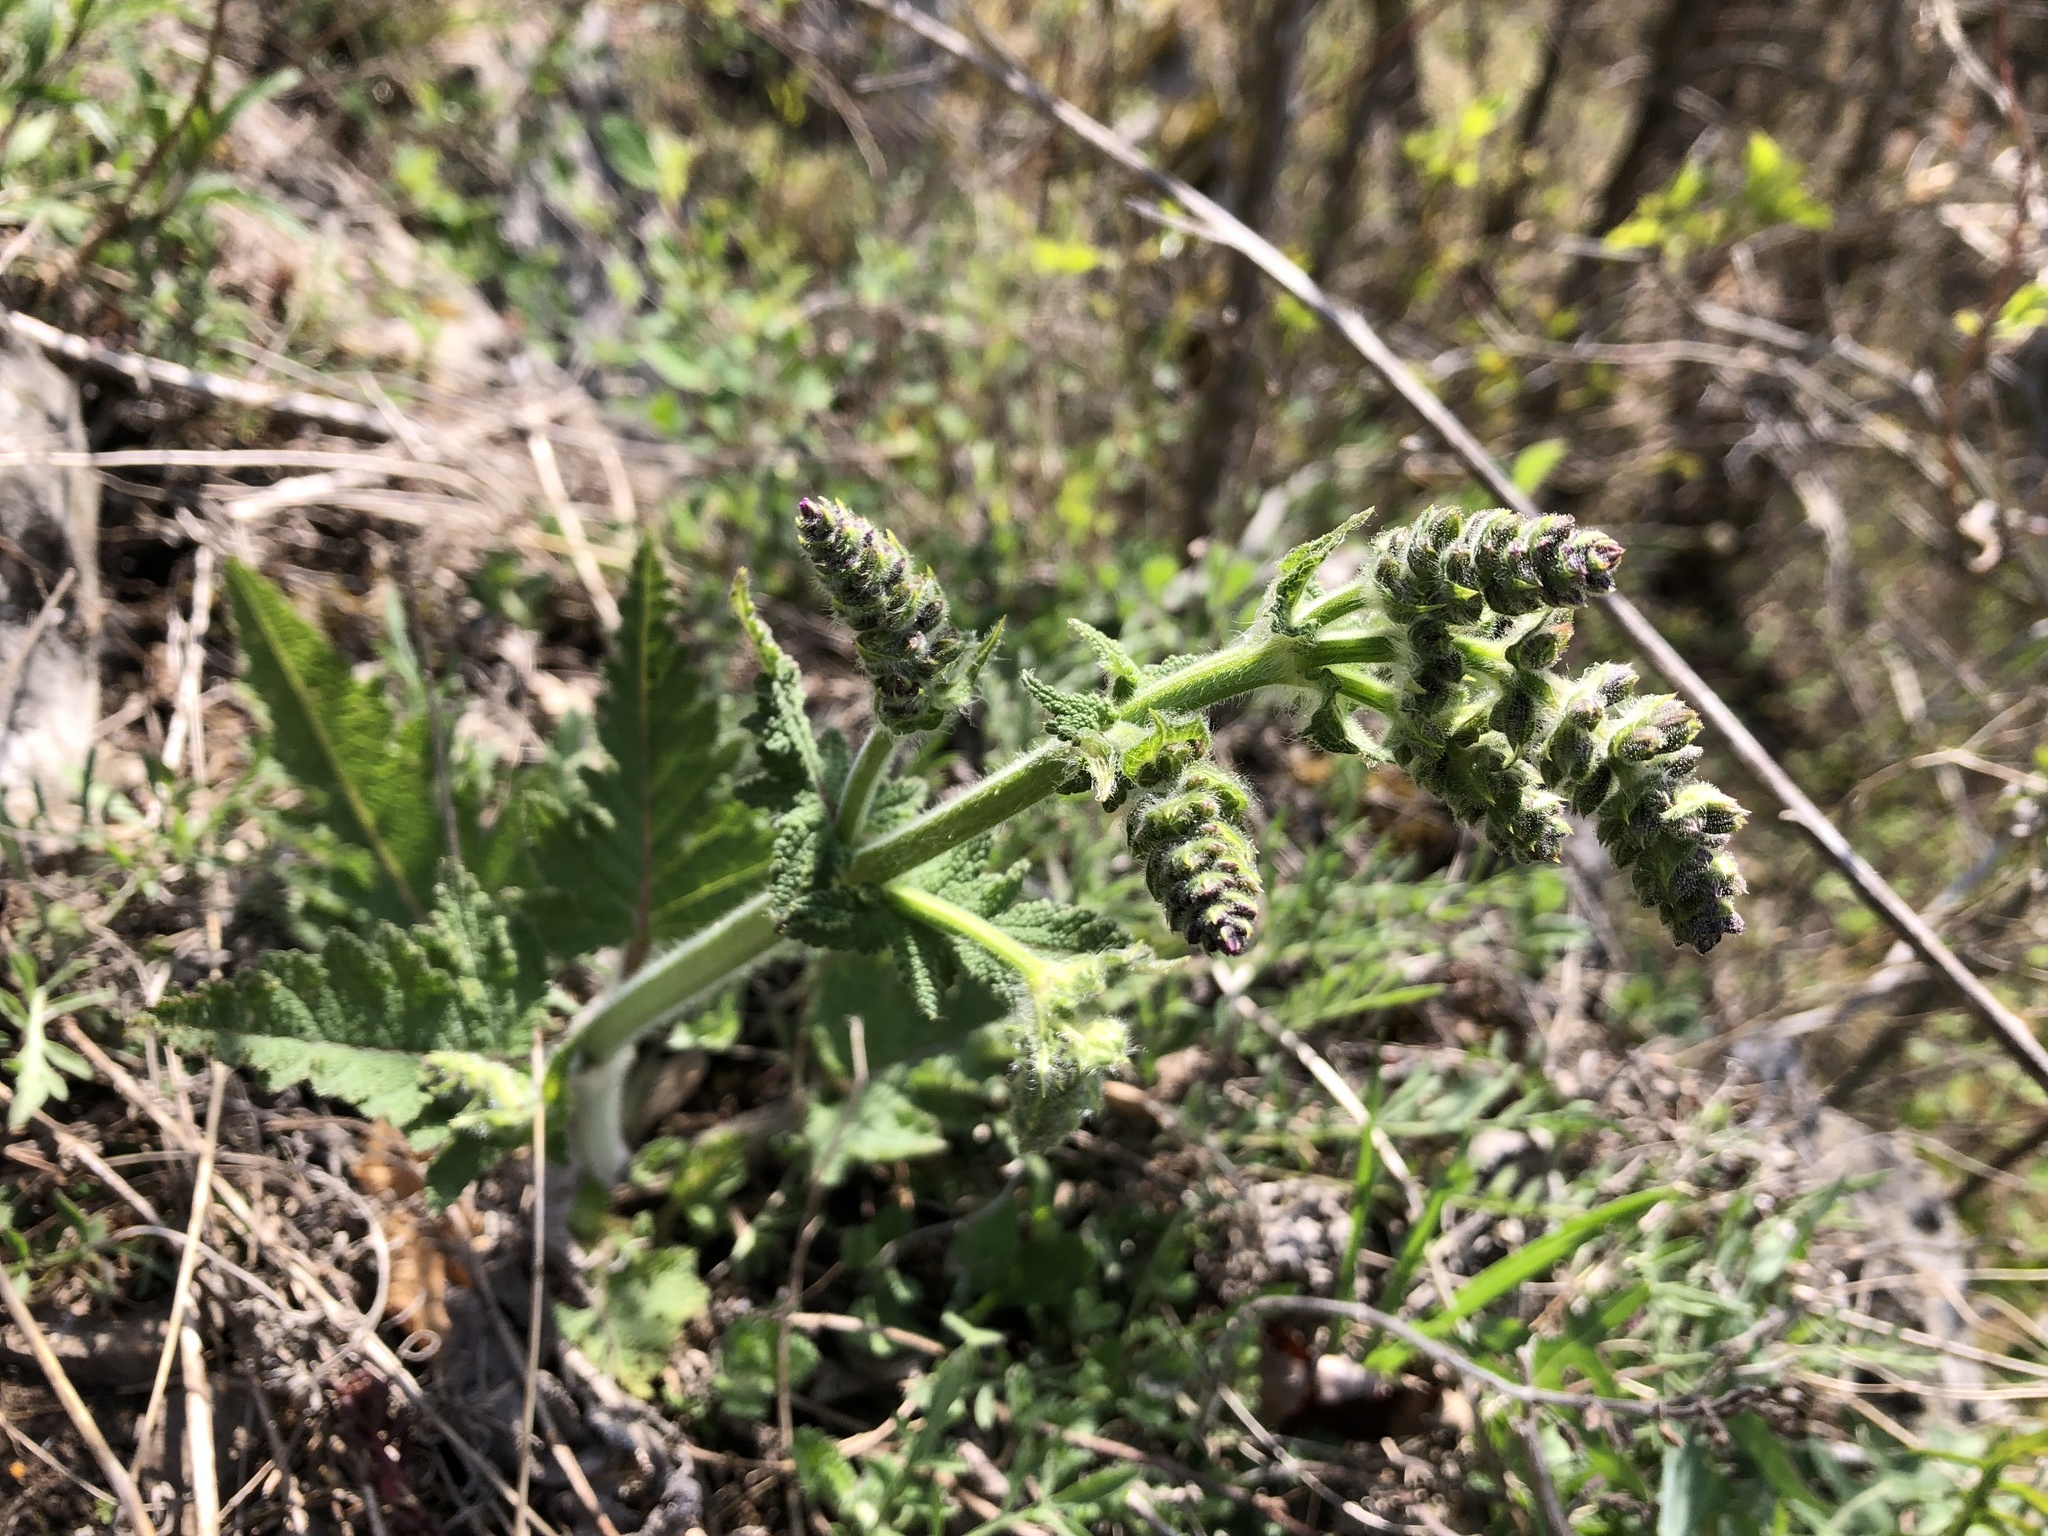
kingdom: Plantae
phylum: Tracheophyta
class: Magnoliopsida
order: Lamiales
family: Lamiaceae
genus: Salvia
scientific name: Salvia pratensis
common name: Meadow sage
